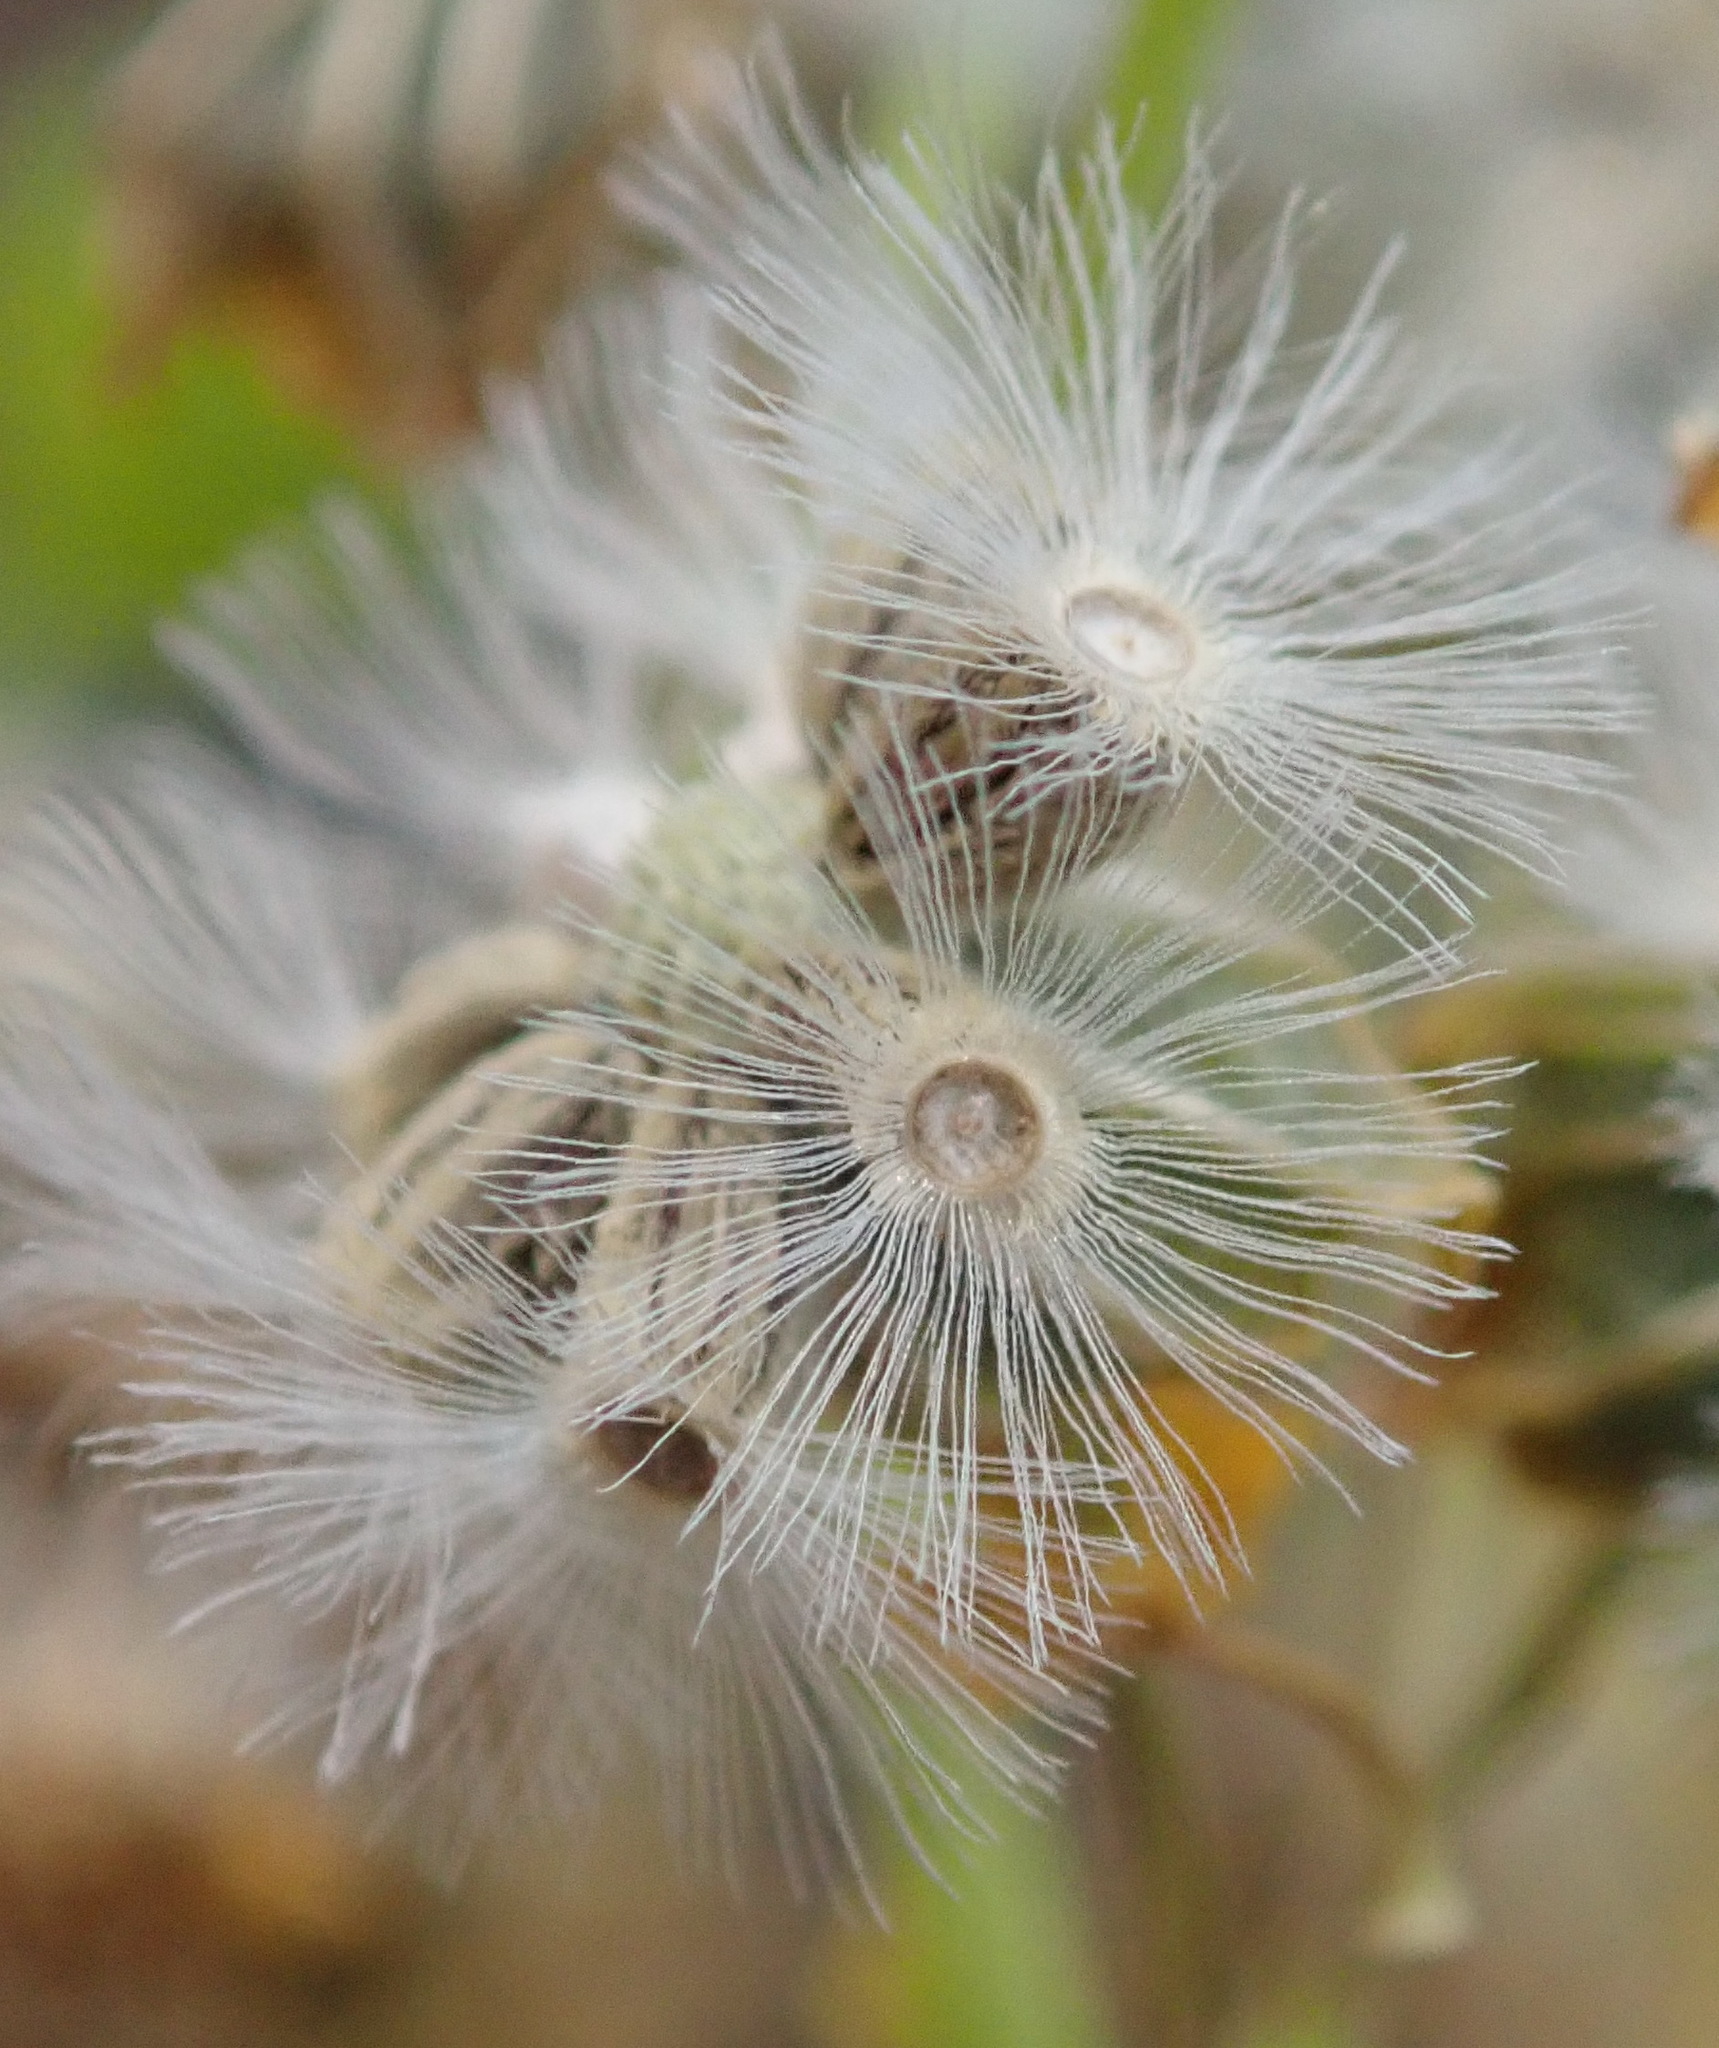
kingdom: Plantae
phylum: Tracheophyta
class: Magnoliopsida
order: Asterales
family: Asteraceae
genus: Othonna
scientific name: Othonna parviflora
